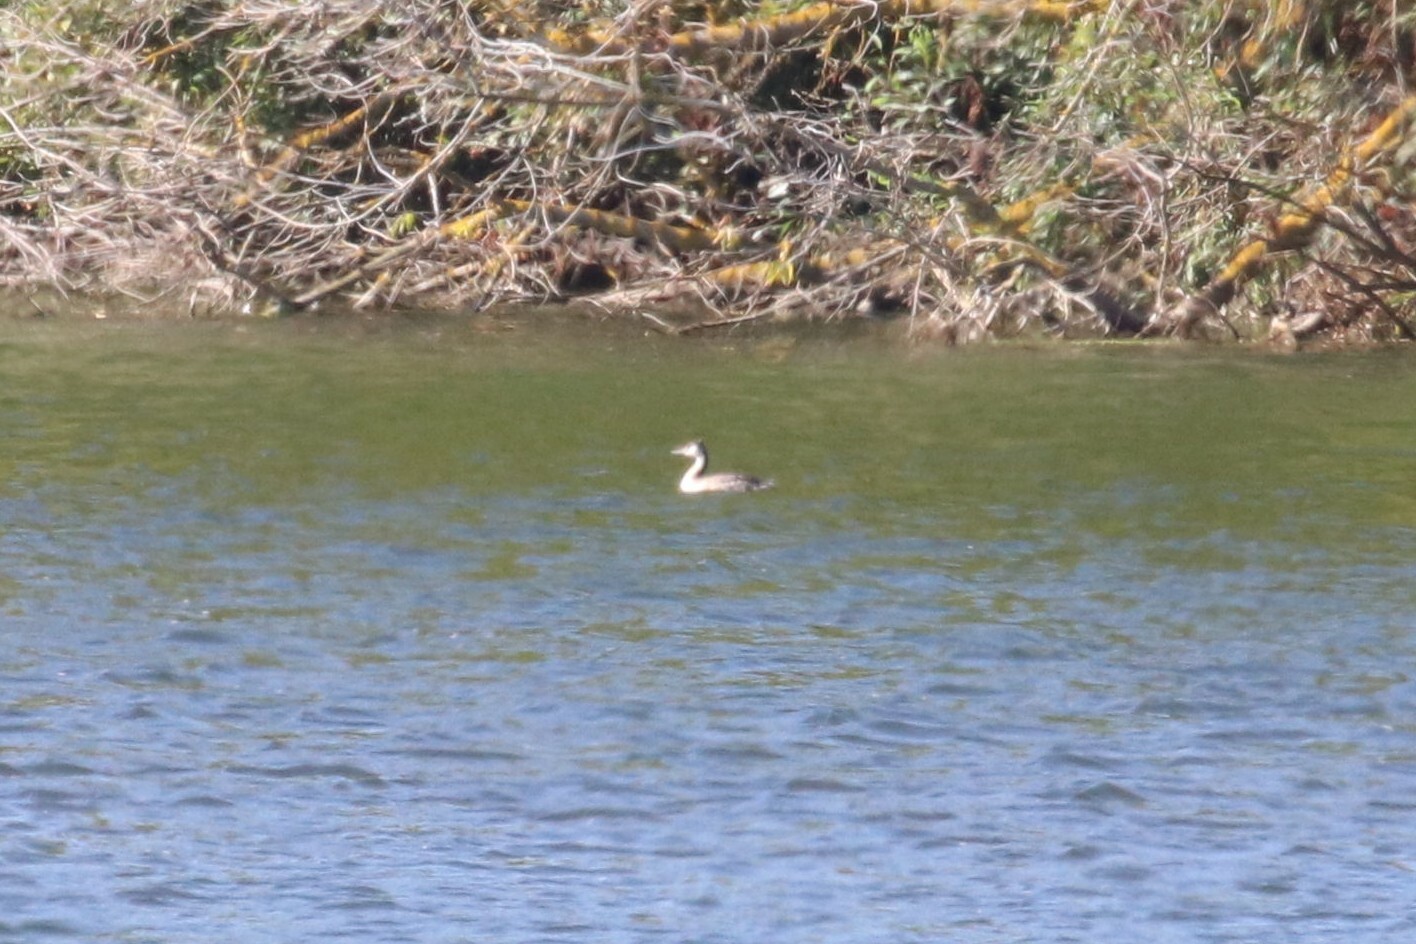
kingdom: Animalia
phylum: Chordata
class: Aves
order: Podicipediformes
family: Podicipedidae
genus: Podiceps
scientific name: Podiceps cristatus
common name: Great crested grebe
